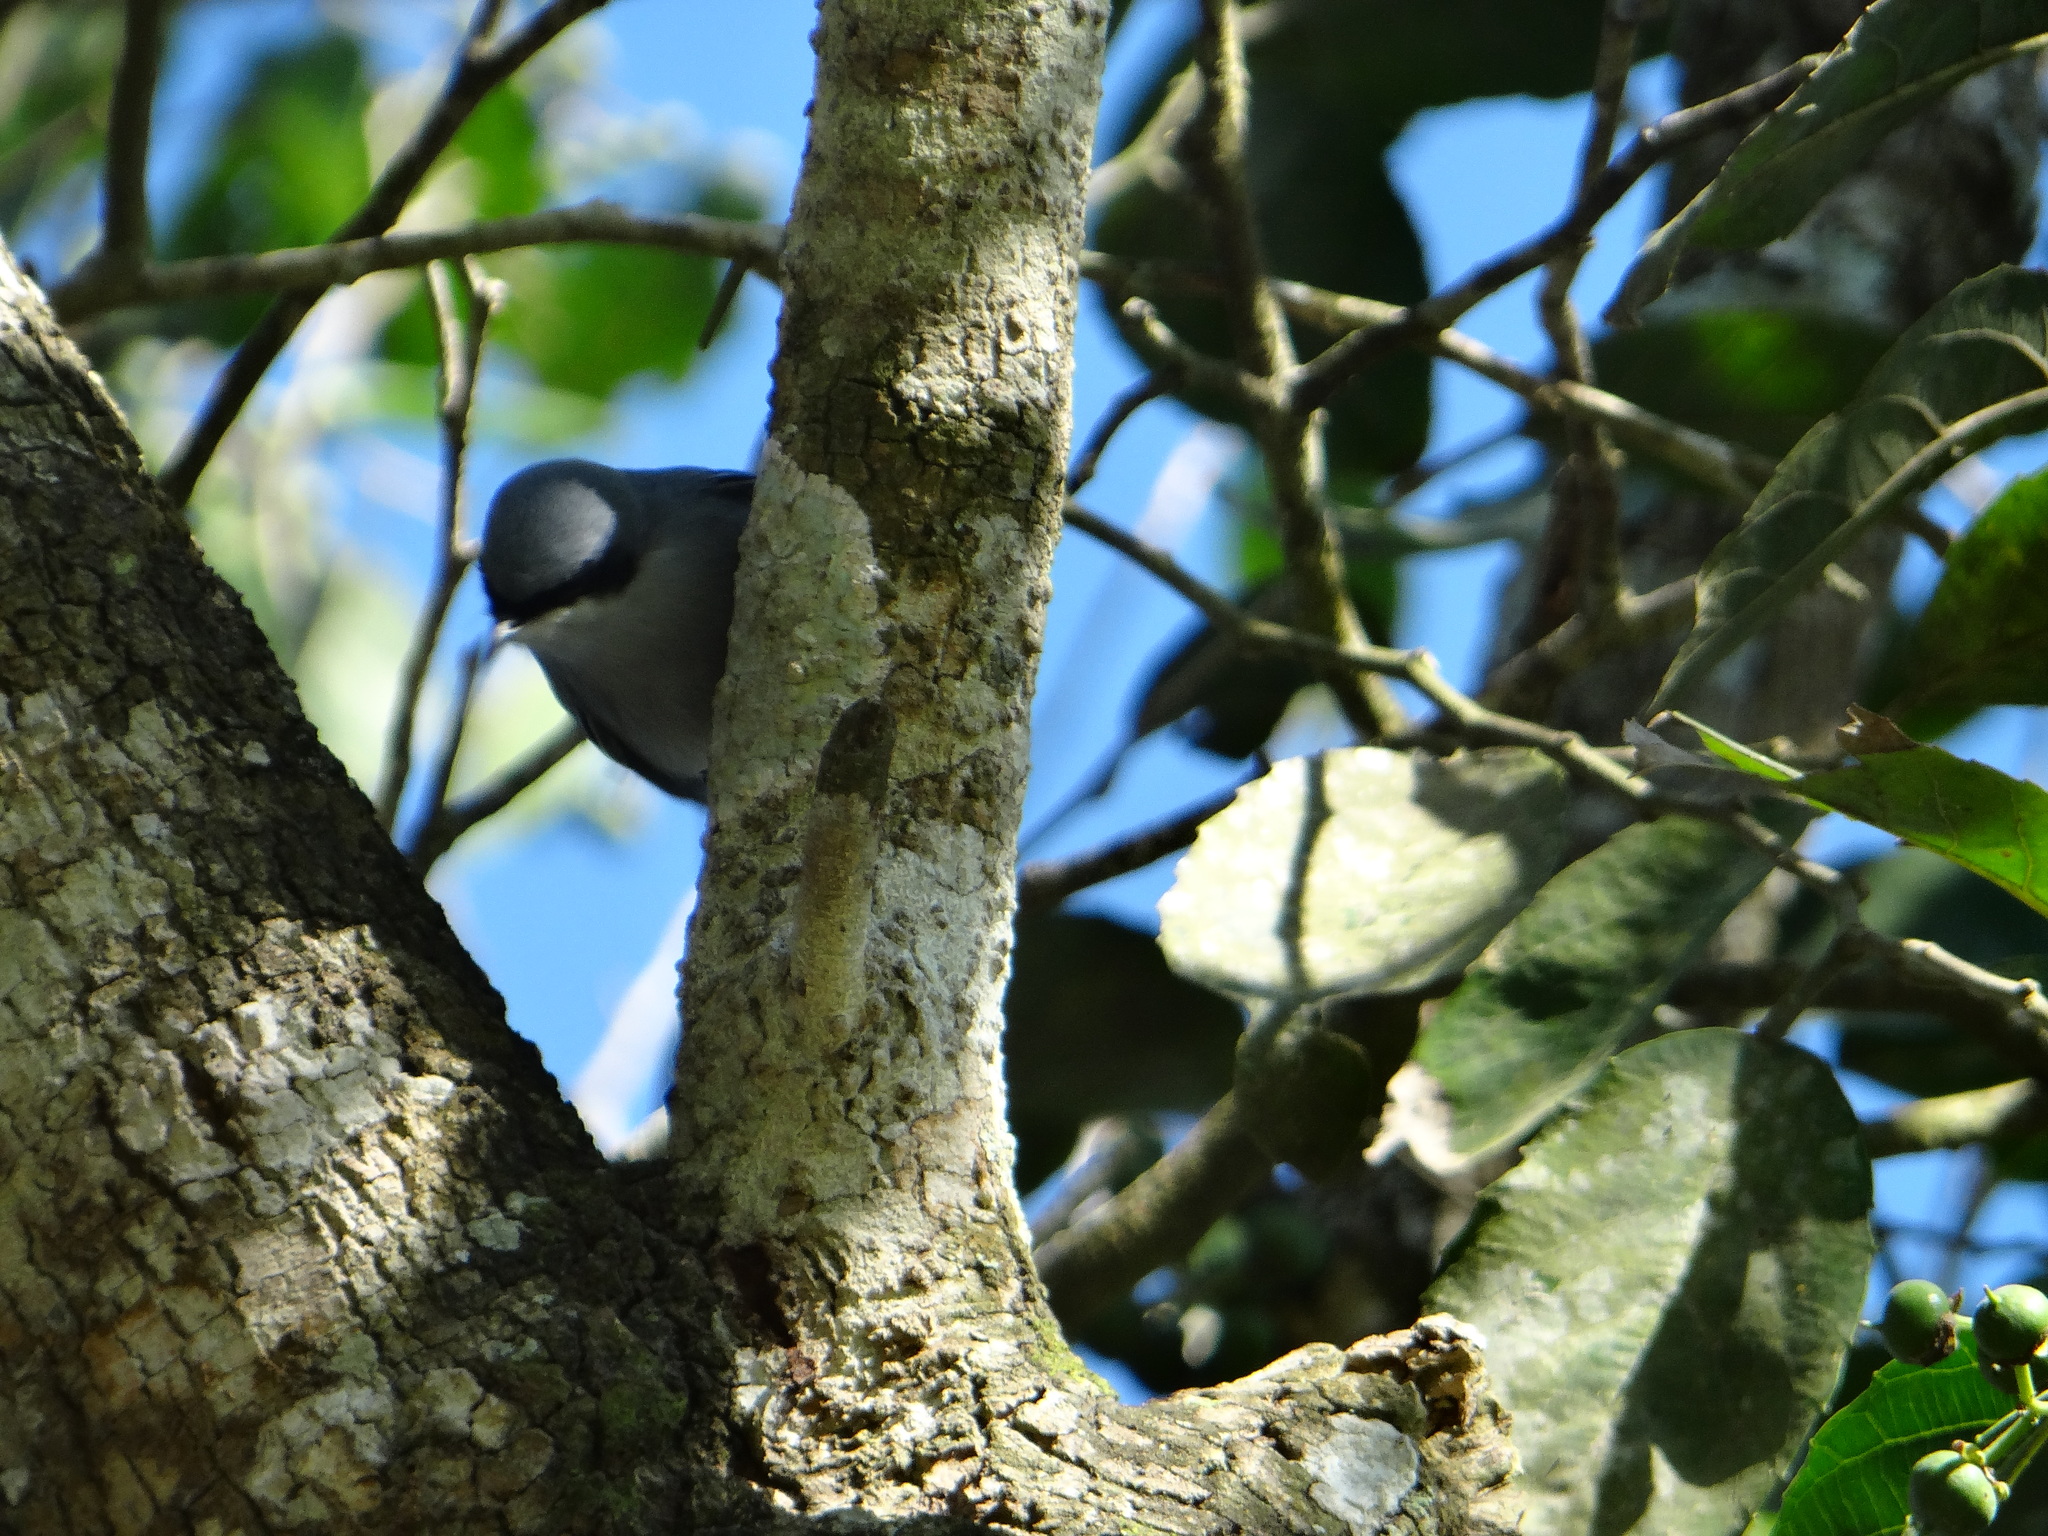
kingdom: Animalia
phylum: Chordata
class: Aves
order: Passeriformes
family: Polioptilidae
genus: Polioptila
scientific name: Polioptila dumicola
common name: Masked gnatcatcher
